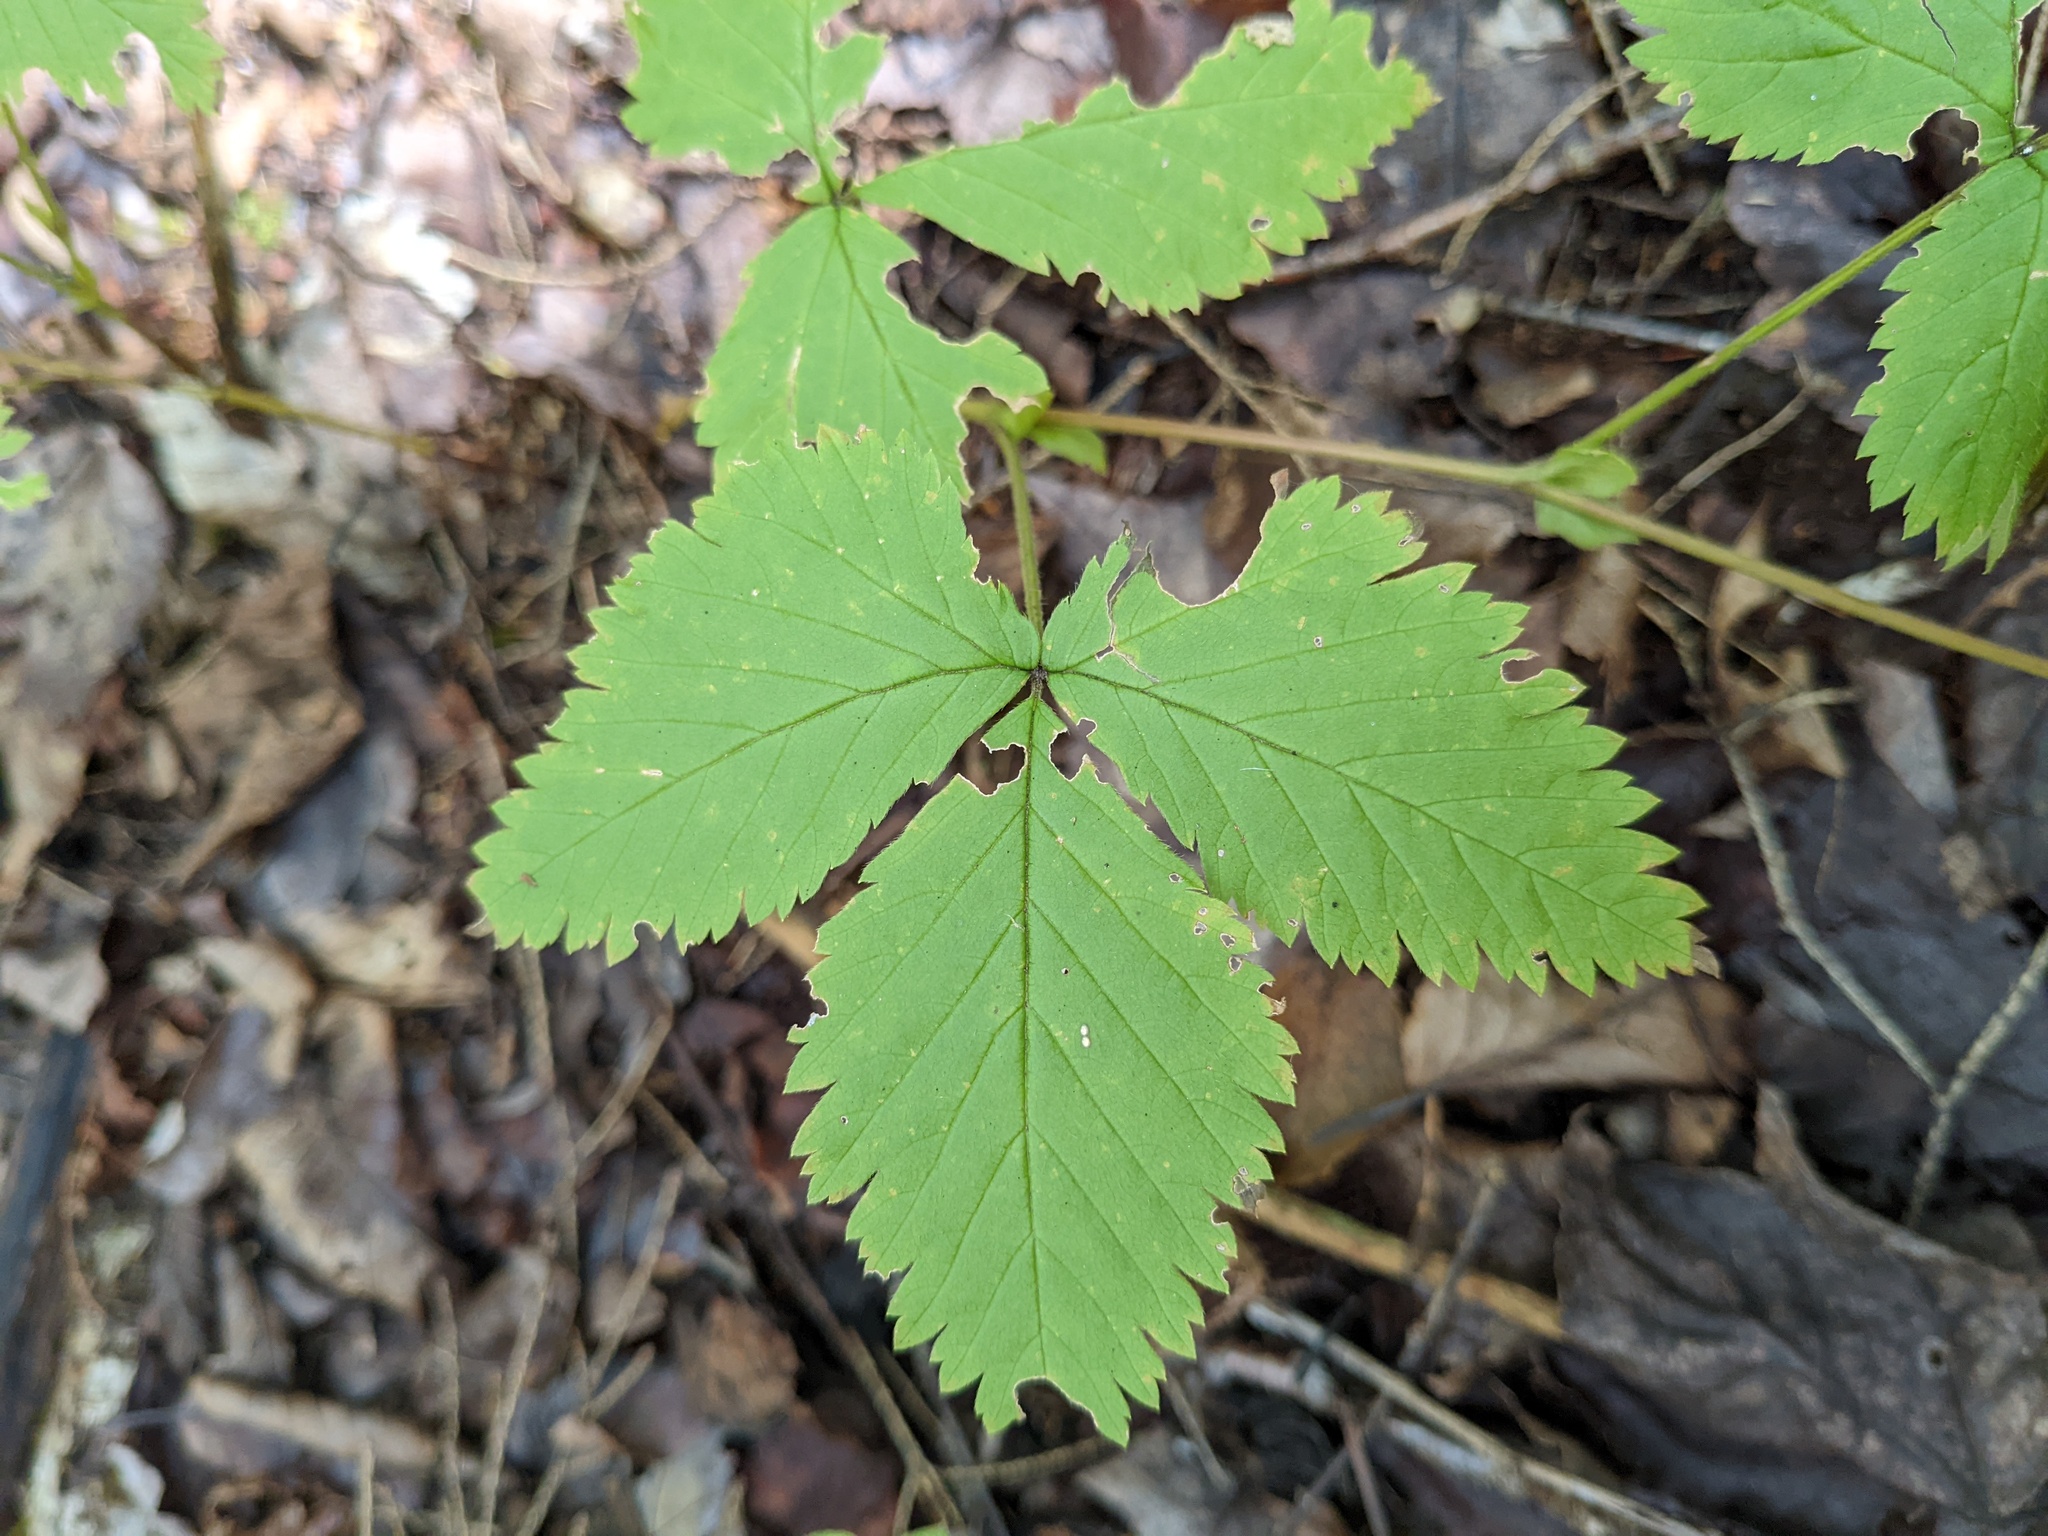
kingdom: Plantae
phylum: Tracheophyta
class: Magnoliopsida
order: Rosales
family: Rosaceae
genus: Rubus
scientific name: Rubus pubescens
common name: Dwarf raspberry
